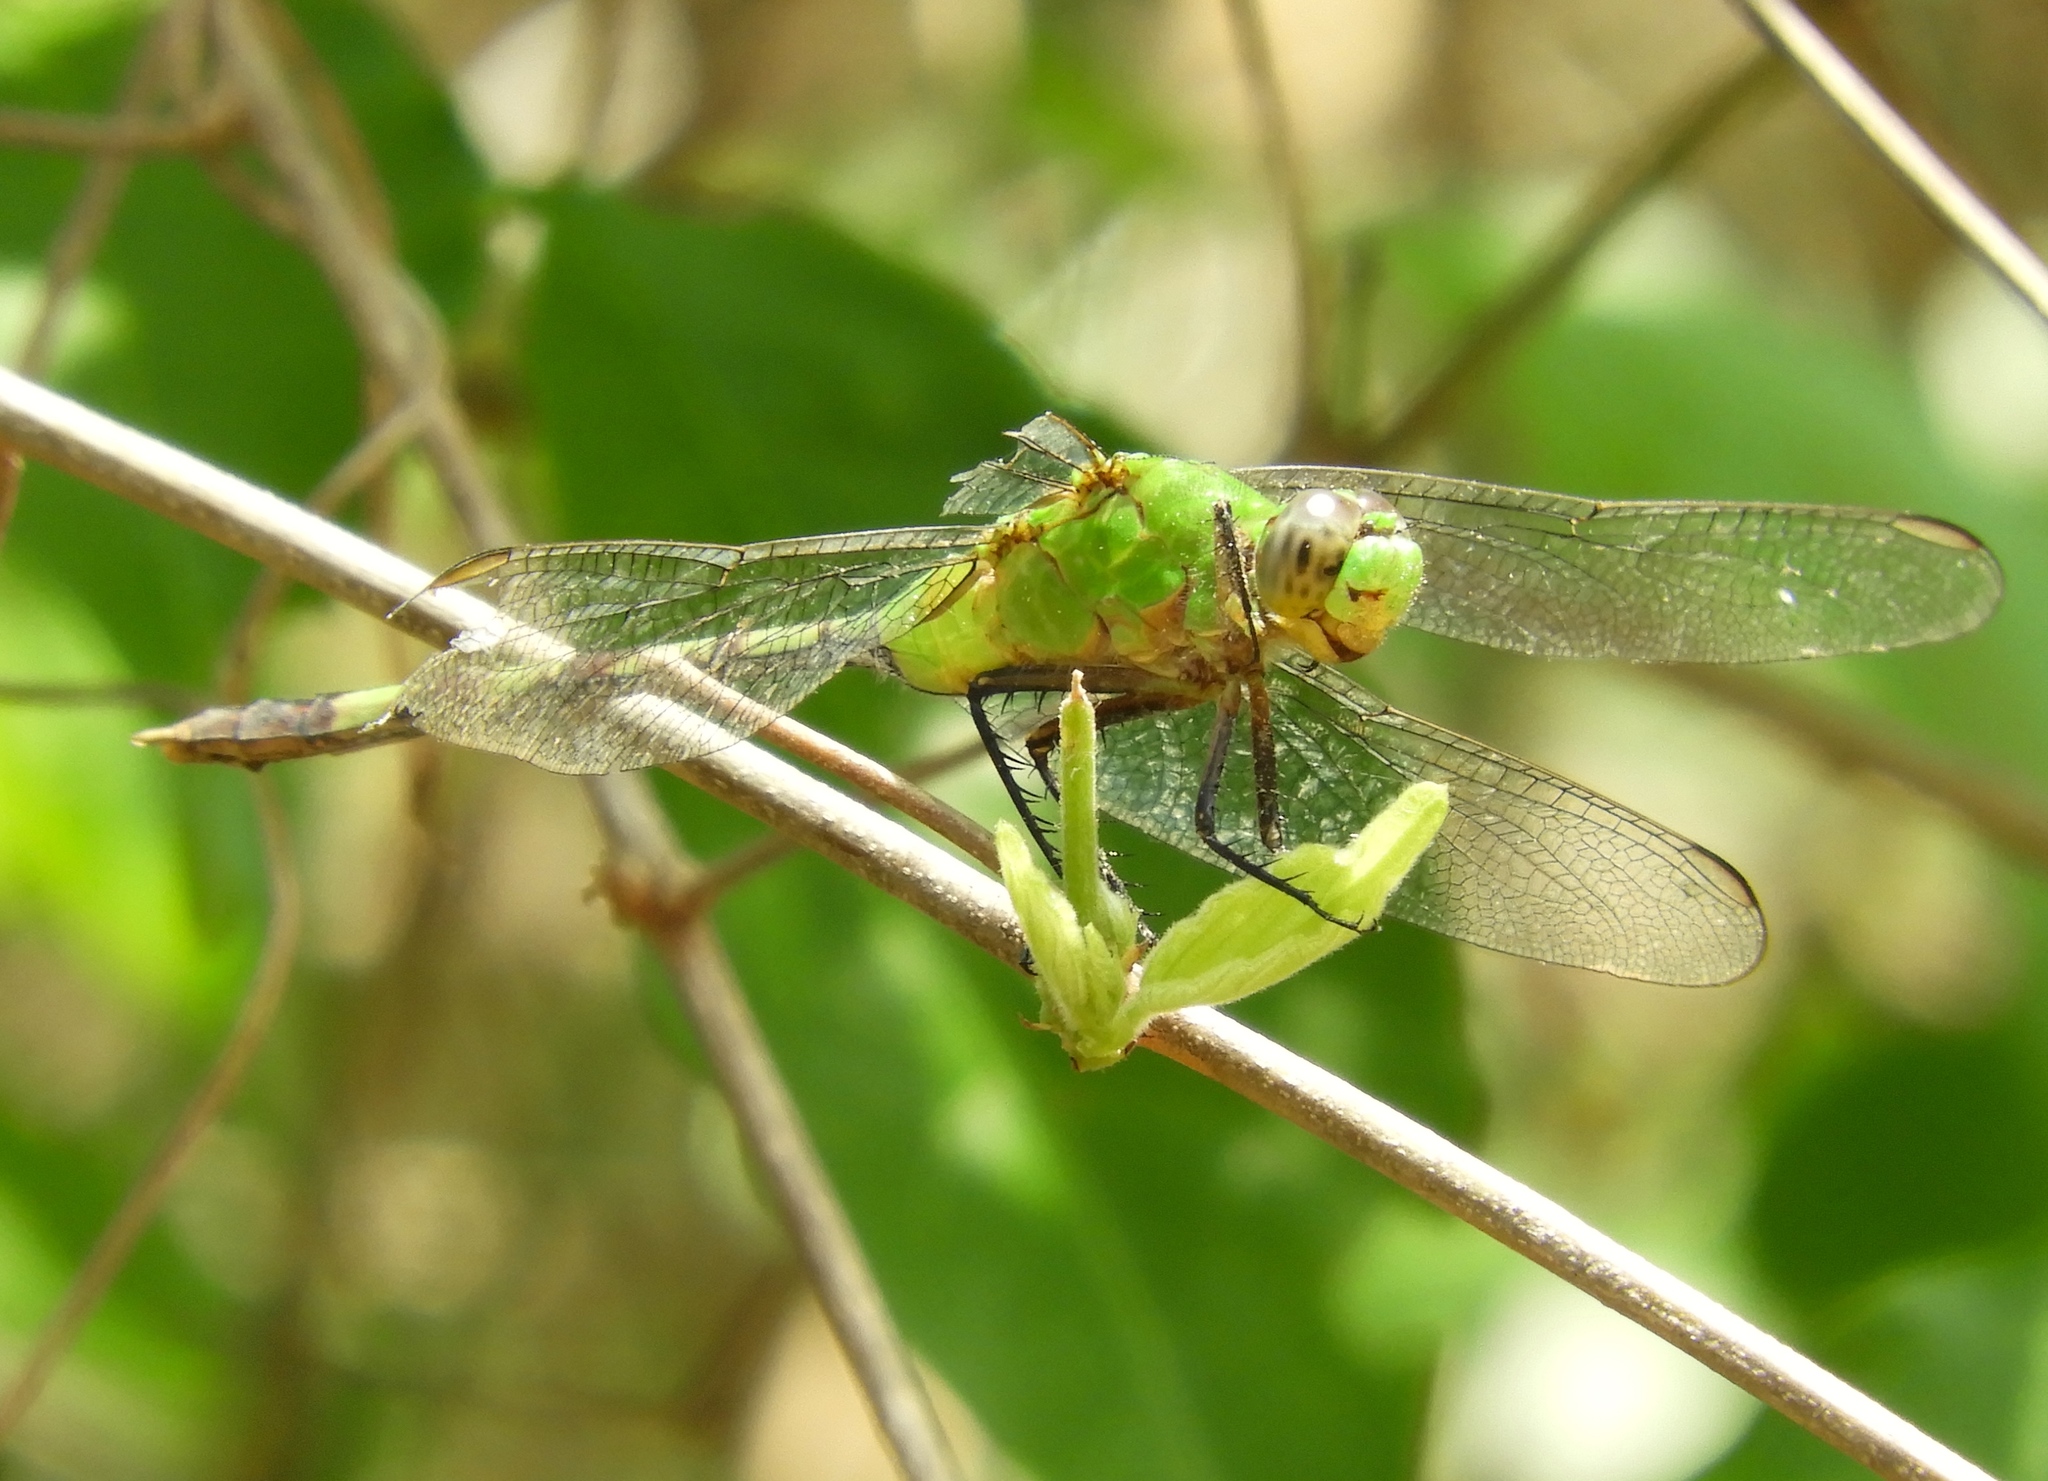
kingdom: Animalia
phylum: Arthropoda
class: Insecta
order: Odonata
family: Libellulidae
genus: Erythemis
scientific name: Erythemis vesiculosa
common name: Great pondhawk
